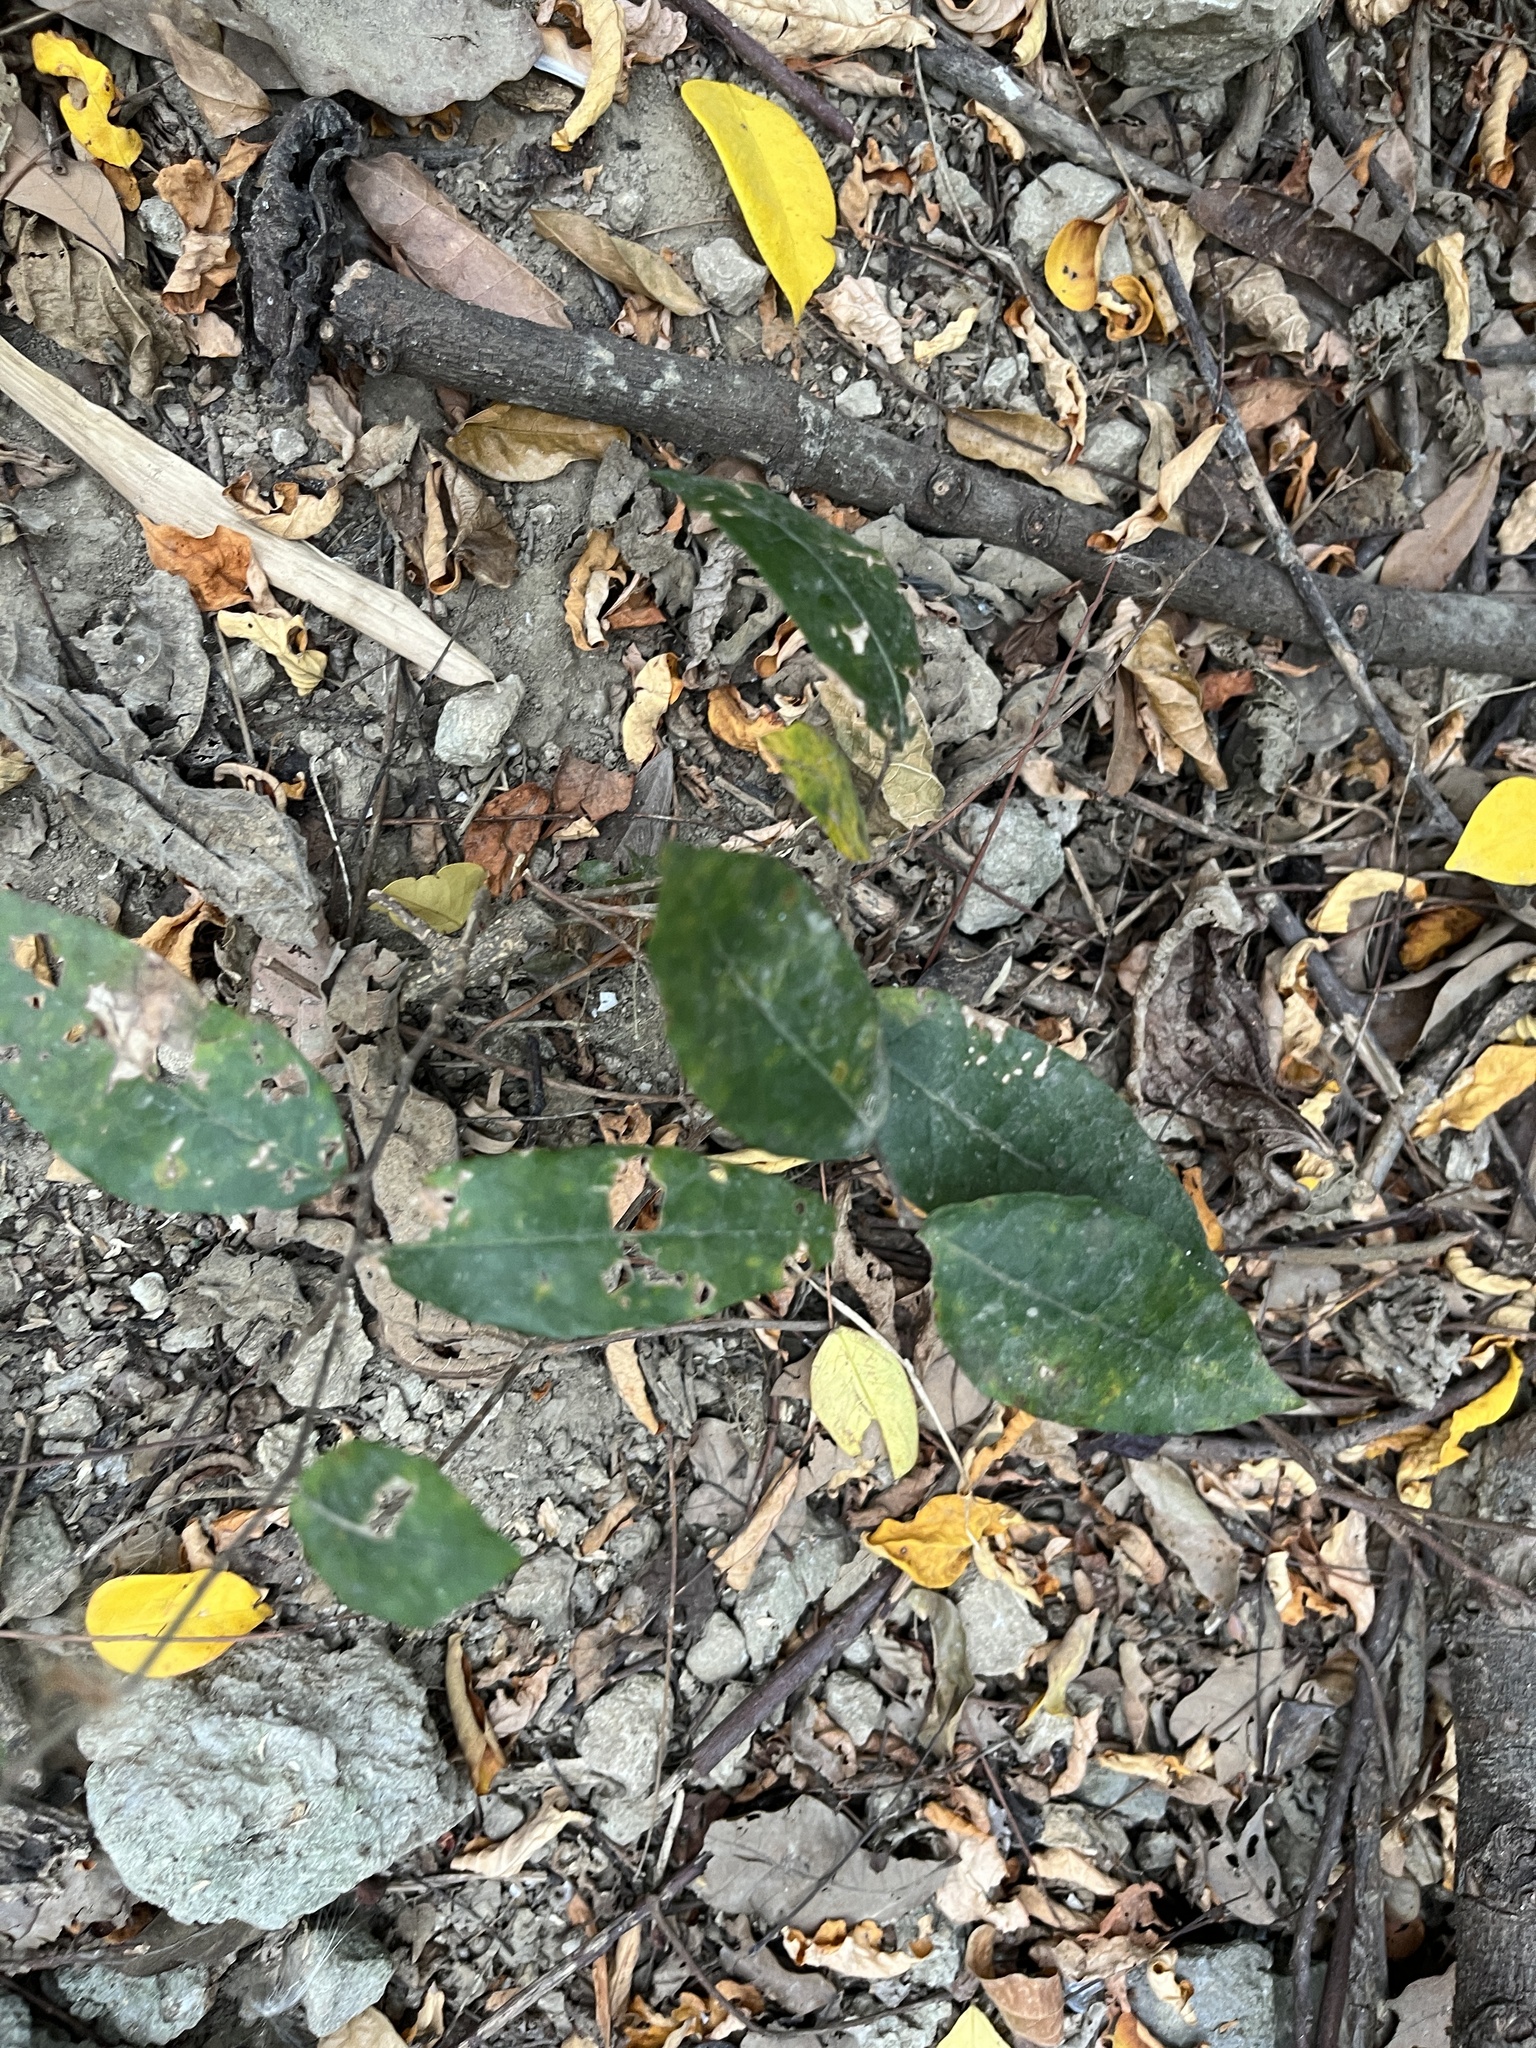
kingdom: Plantae
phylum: Tracheophyta
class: Magnoliopsida
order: Rosales
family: Moraceae
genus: Malaisia
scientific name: Malaisia scandens
